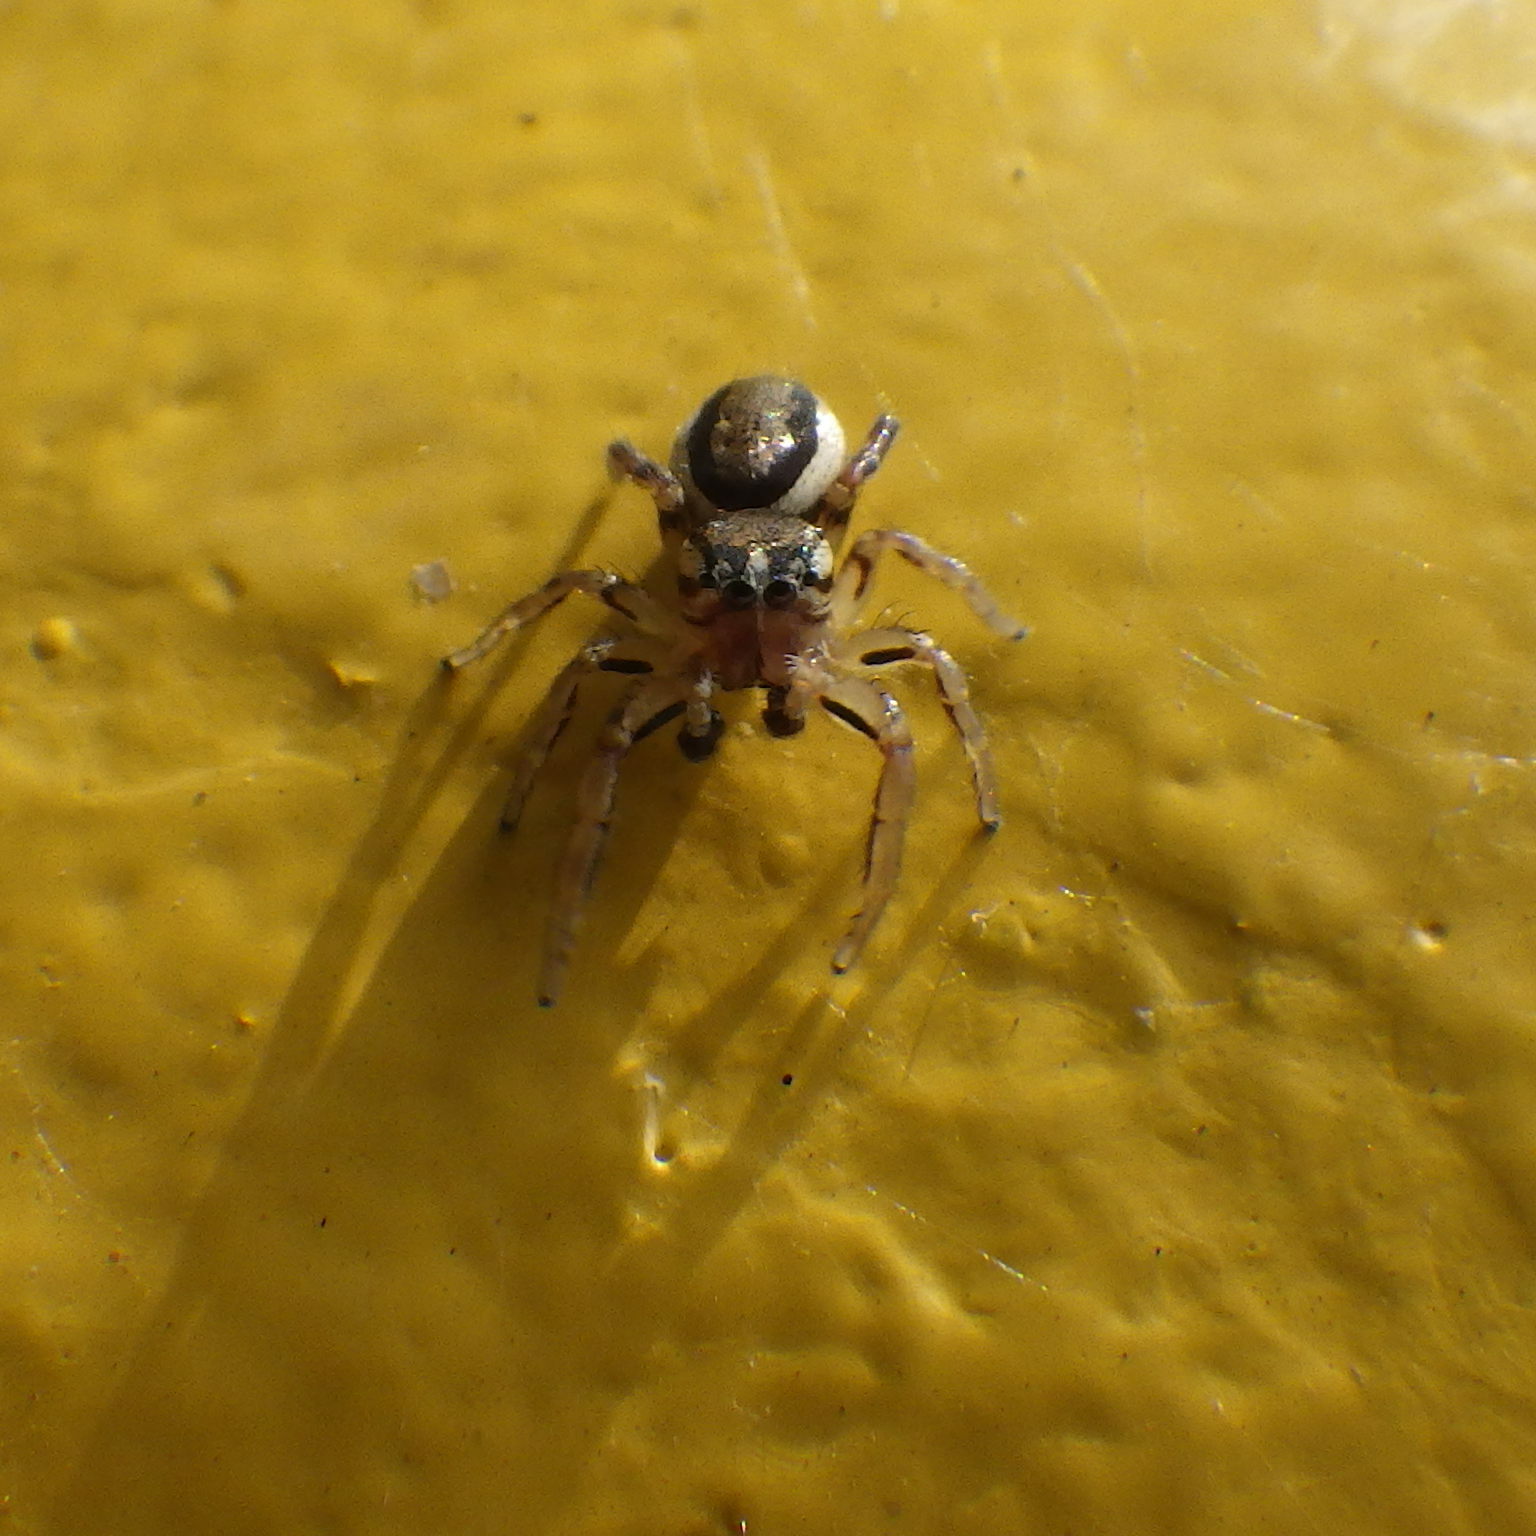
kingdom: Animalia
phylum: Arthropoda
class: Arachnida
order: Araneae
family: Salticidae
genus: Pelegrina
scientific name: Pelegrina flavipes
